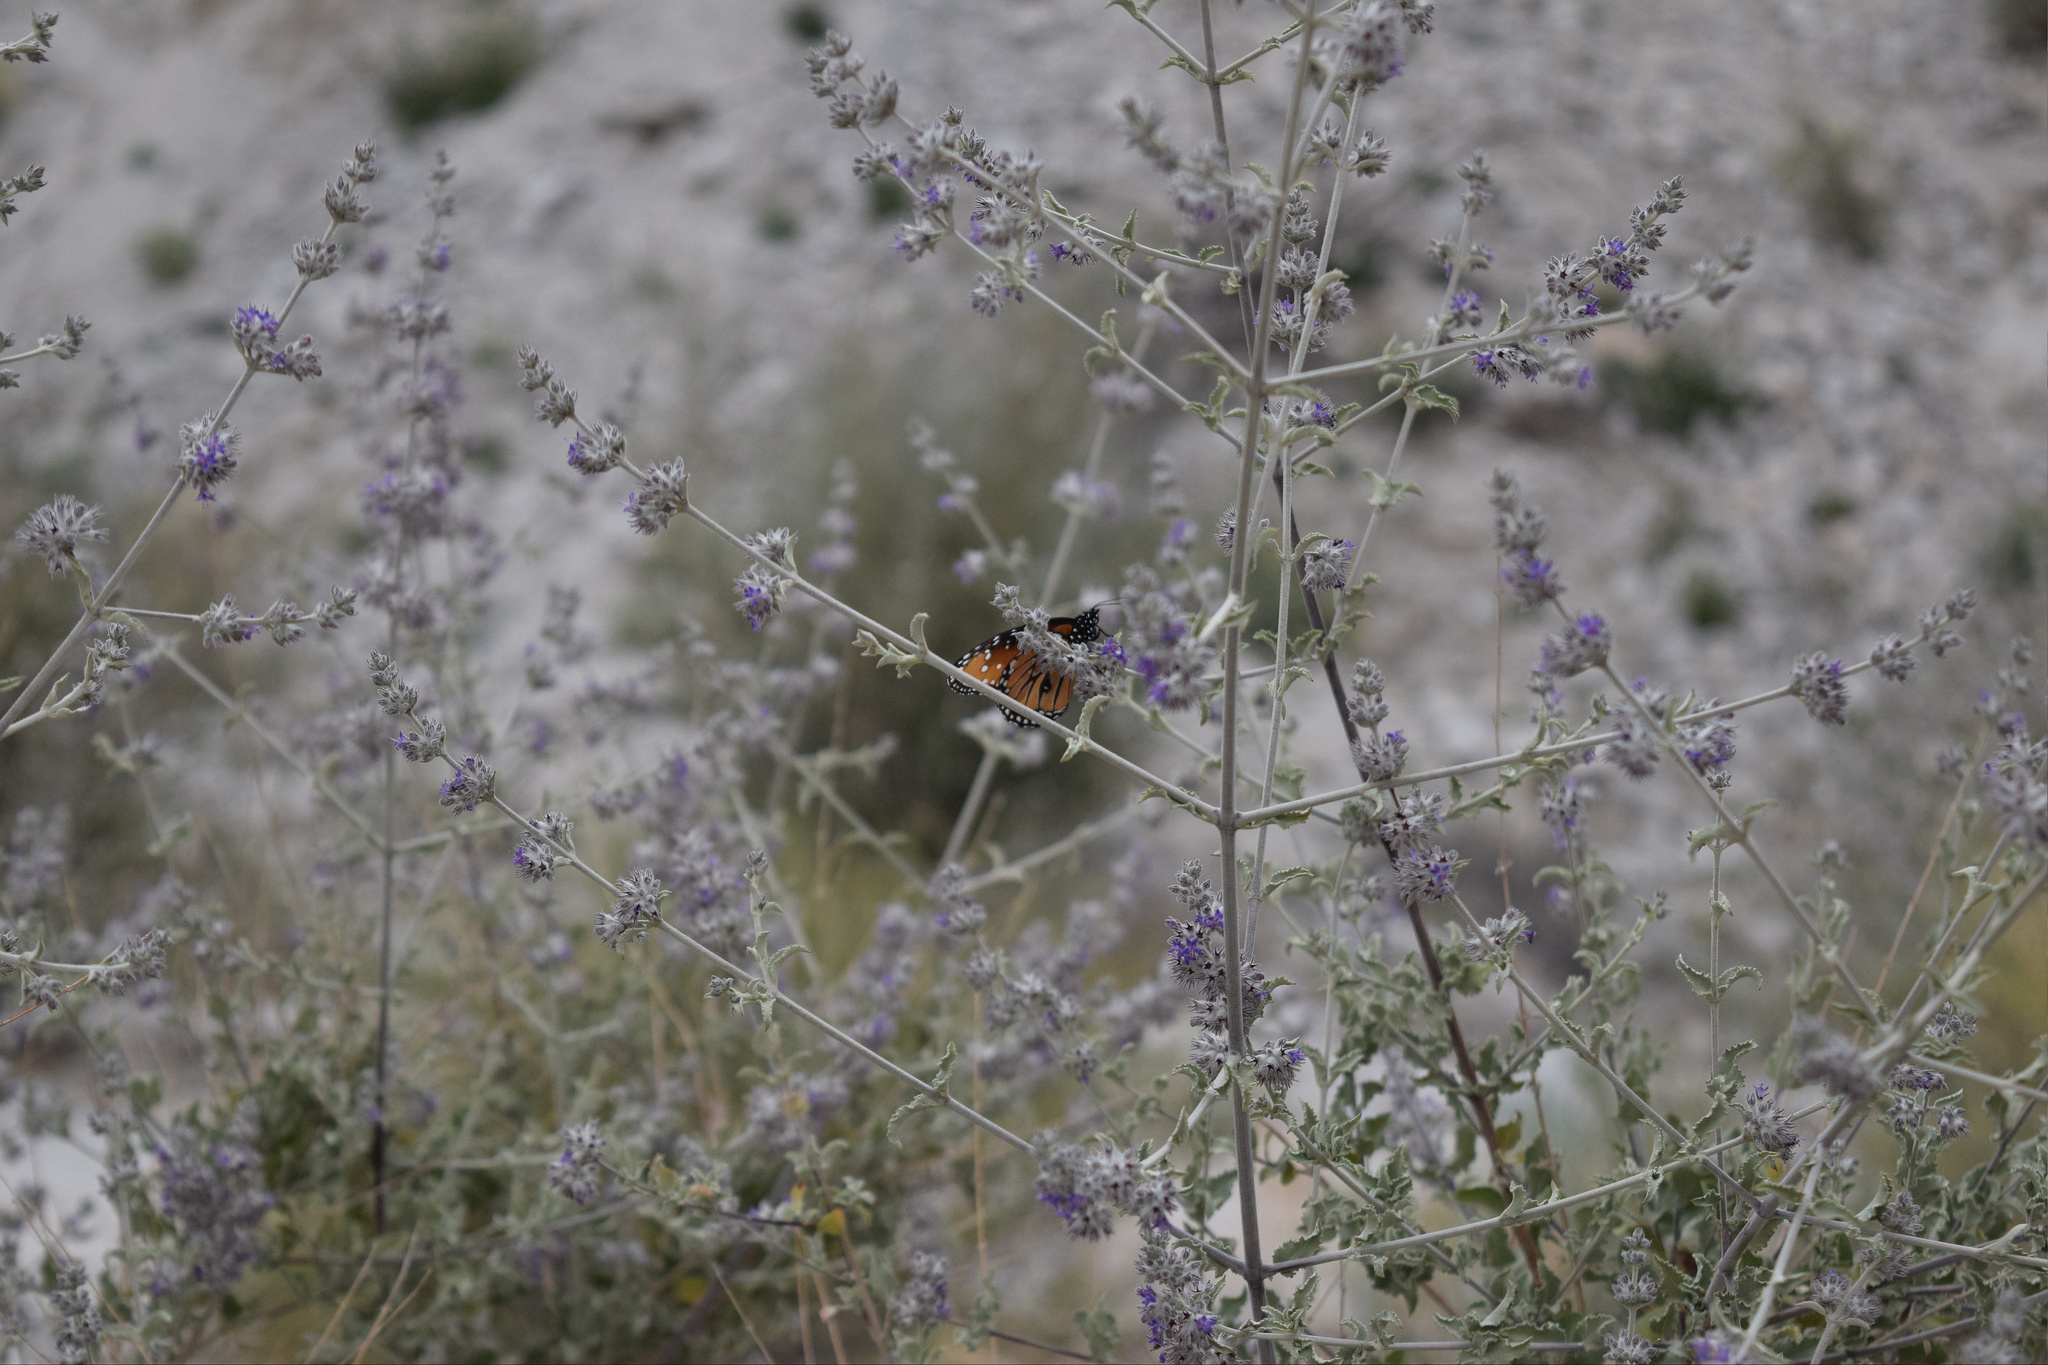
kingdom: Animalia
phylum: Arthropoda
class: Insecta
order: Lepidoptera
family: Nymphalidae
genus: Danaus
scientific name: Danaus gilippus
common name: Queen
